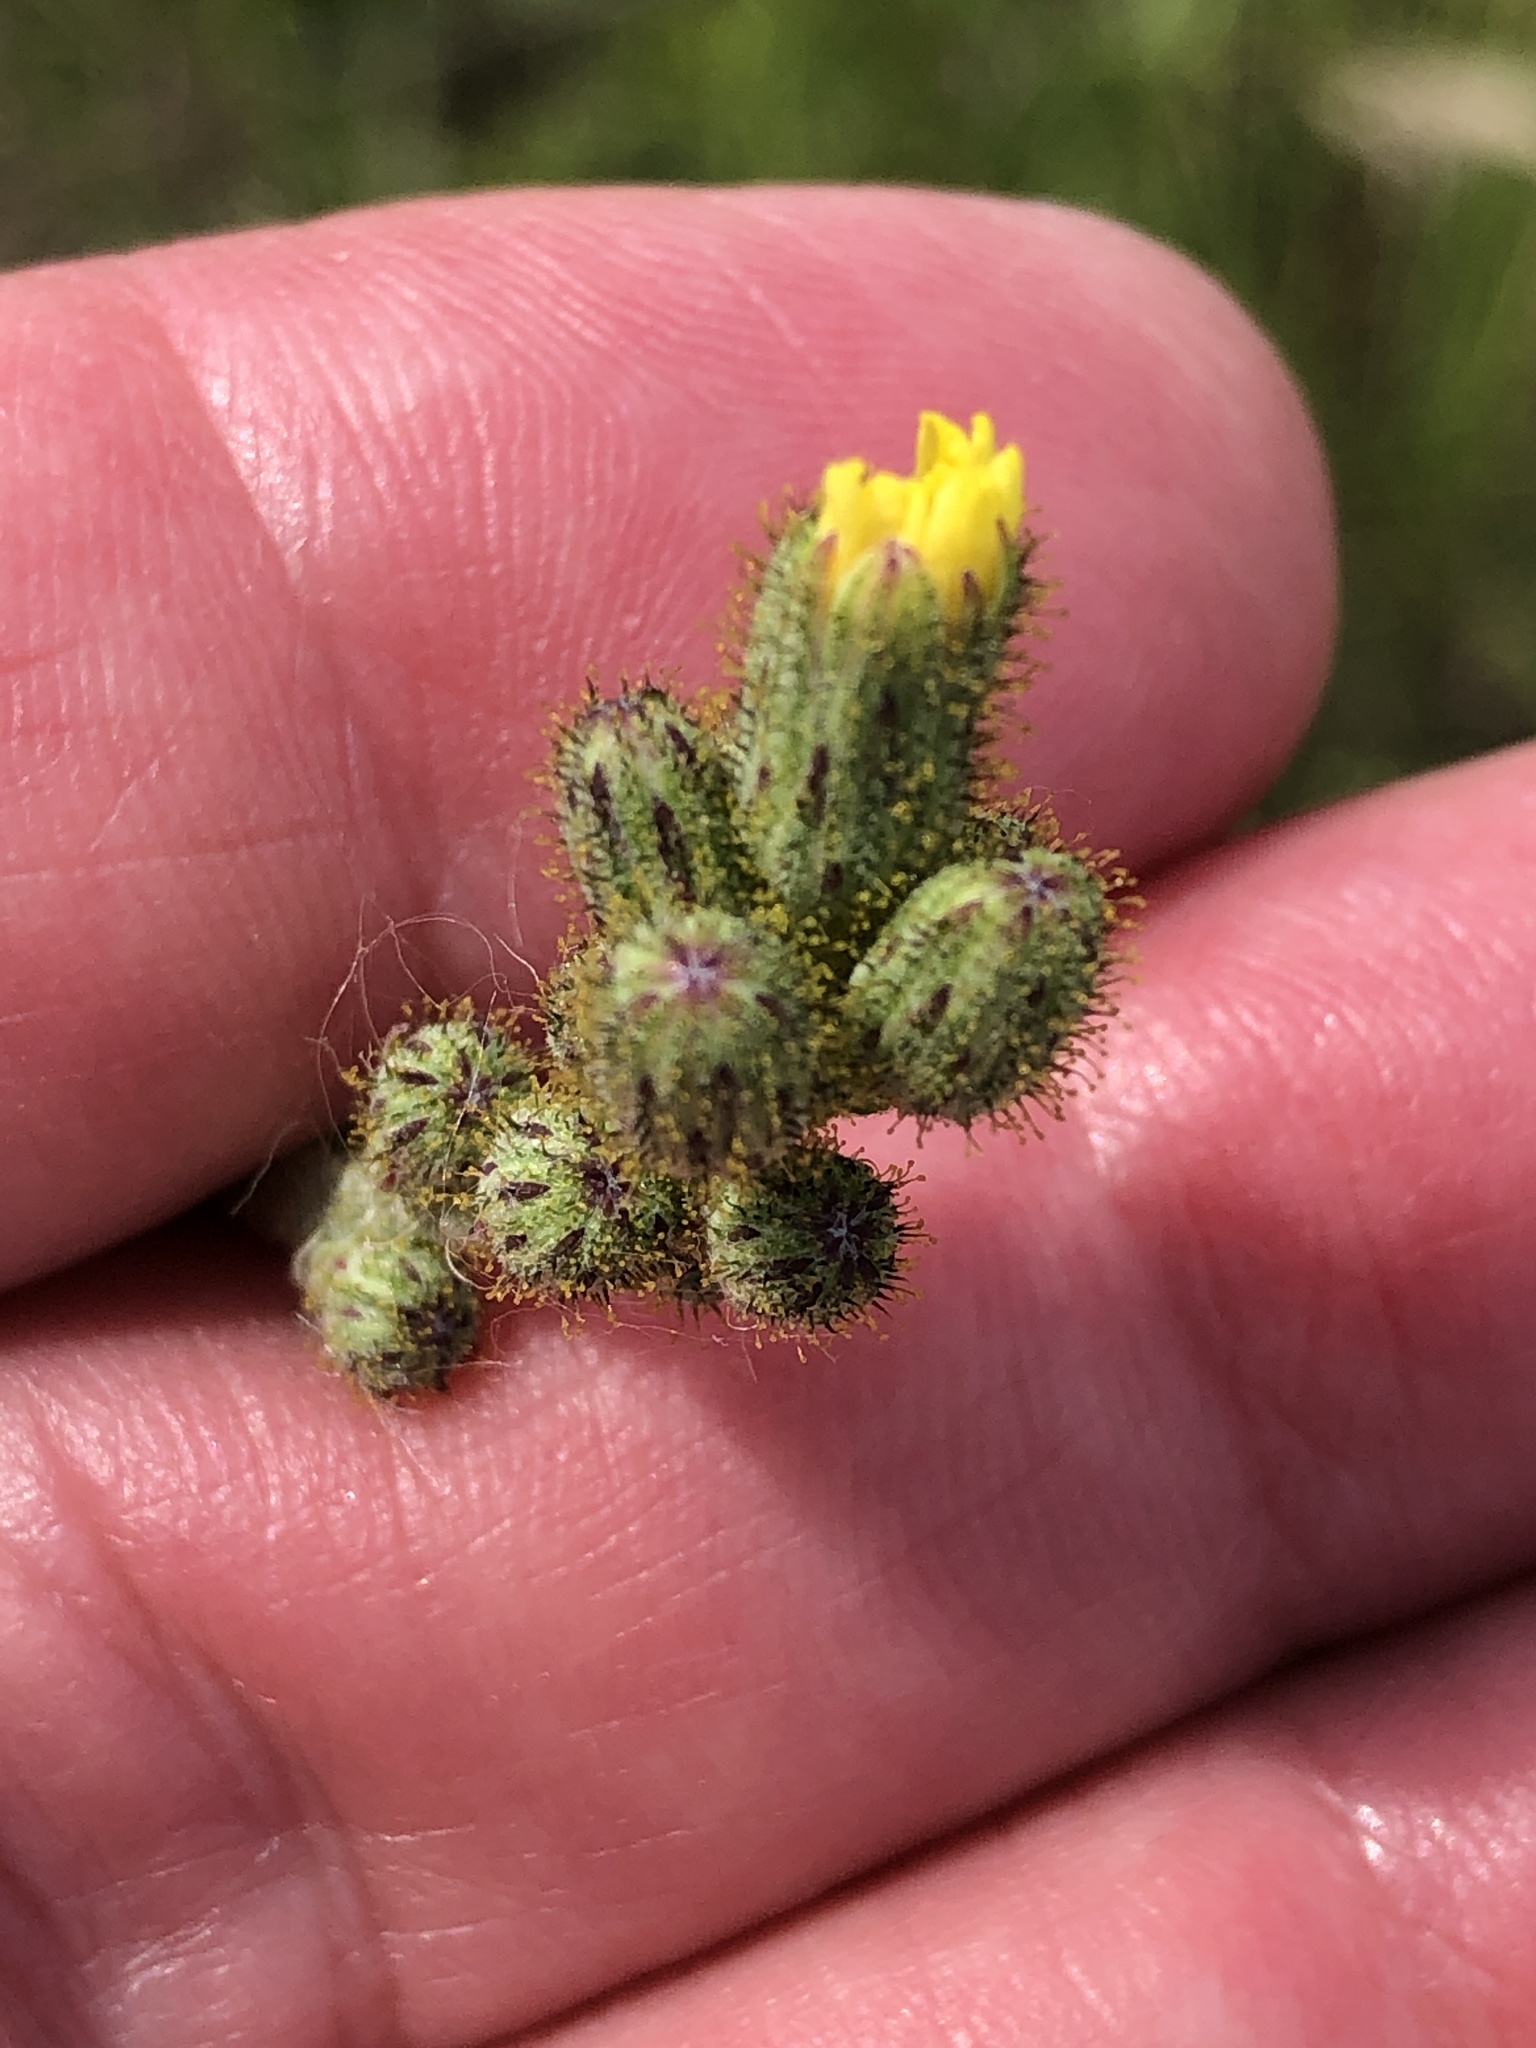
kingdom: Plantae
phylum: Tracheophyta
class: Magnoliopsida
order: Asterales
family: Asteraceae
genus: Hieracium
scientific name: Hieracium longipilum
